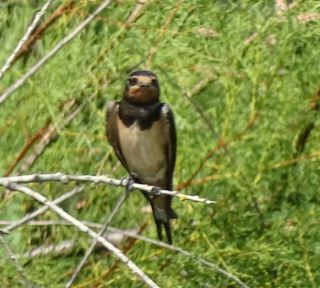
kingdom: Animalia
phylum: Chordata
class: Aves
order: Passeriformes
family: Hirundinidae
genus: Hirundo
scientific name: Hirundo rustica
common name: Barn swallow
